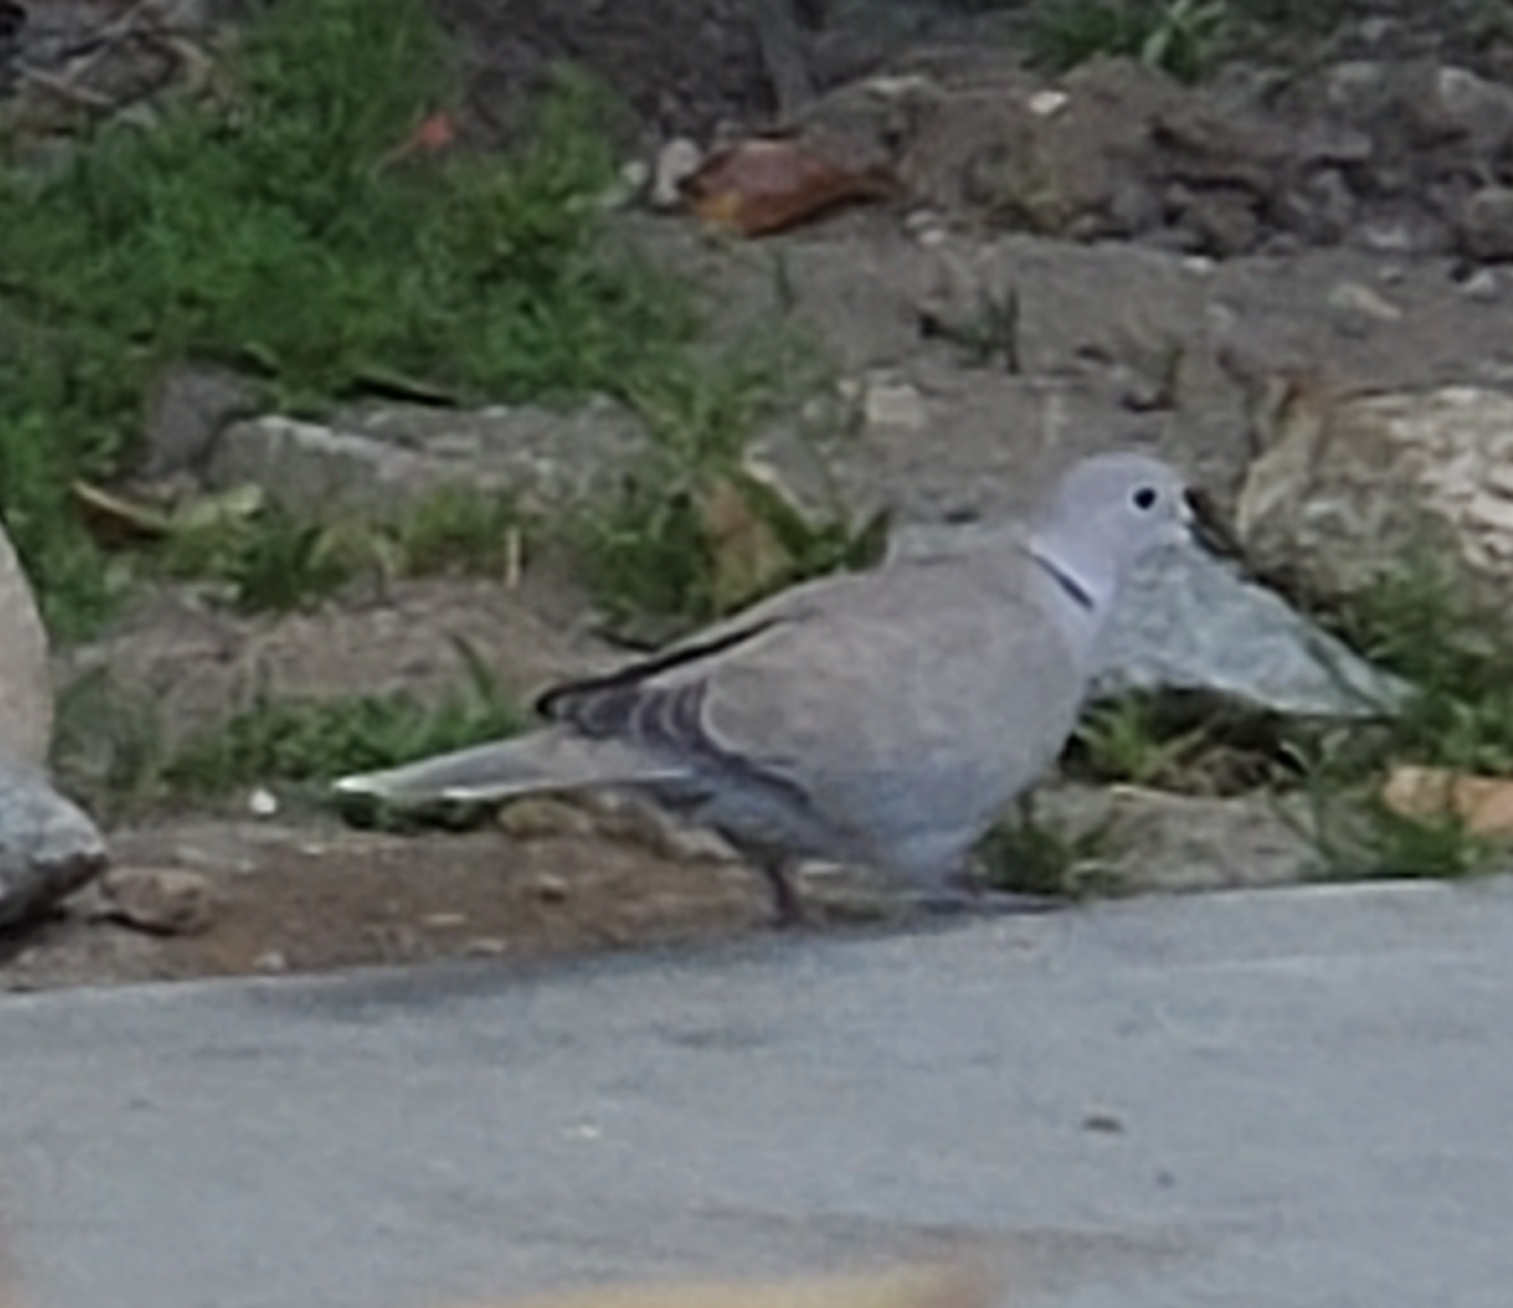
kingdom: Animalia
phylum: Chordata
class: Aves
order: Columbiformes
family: Columbidae
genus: Streptopelia
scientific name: Streptopelia decaocto
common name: Eurasian collared dove
